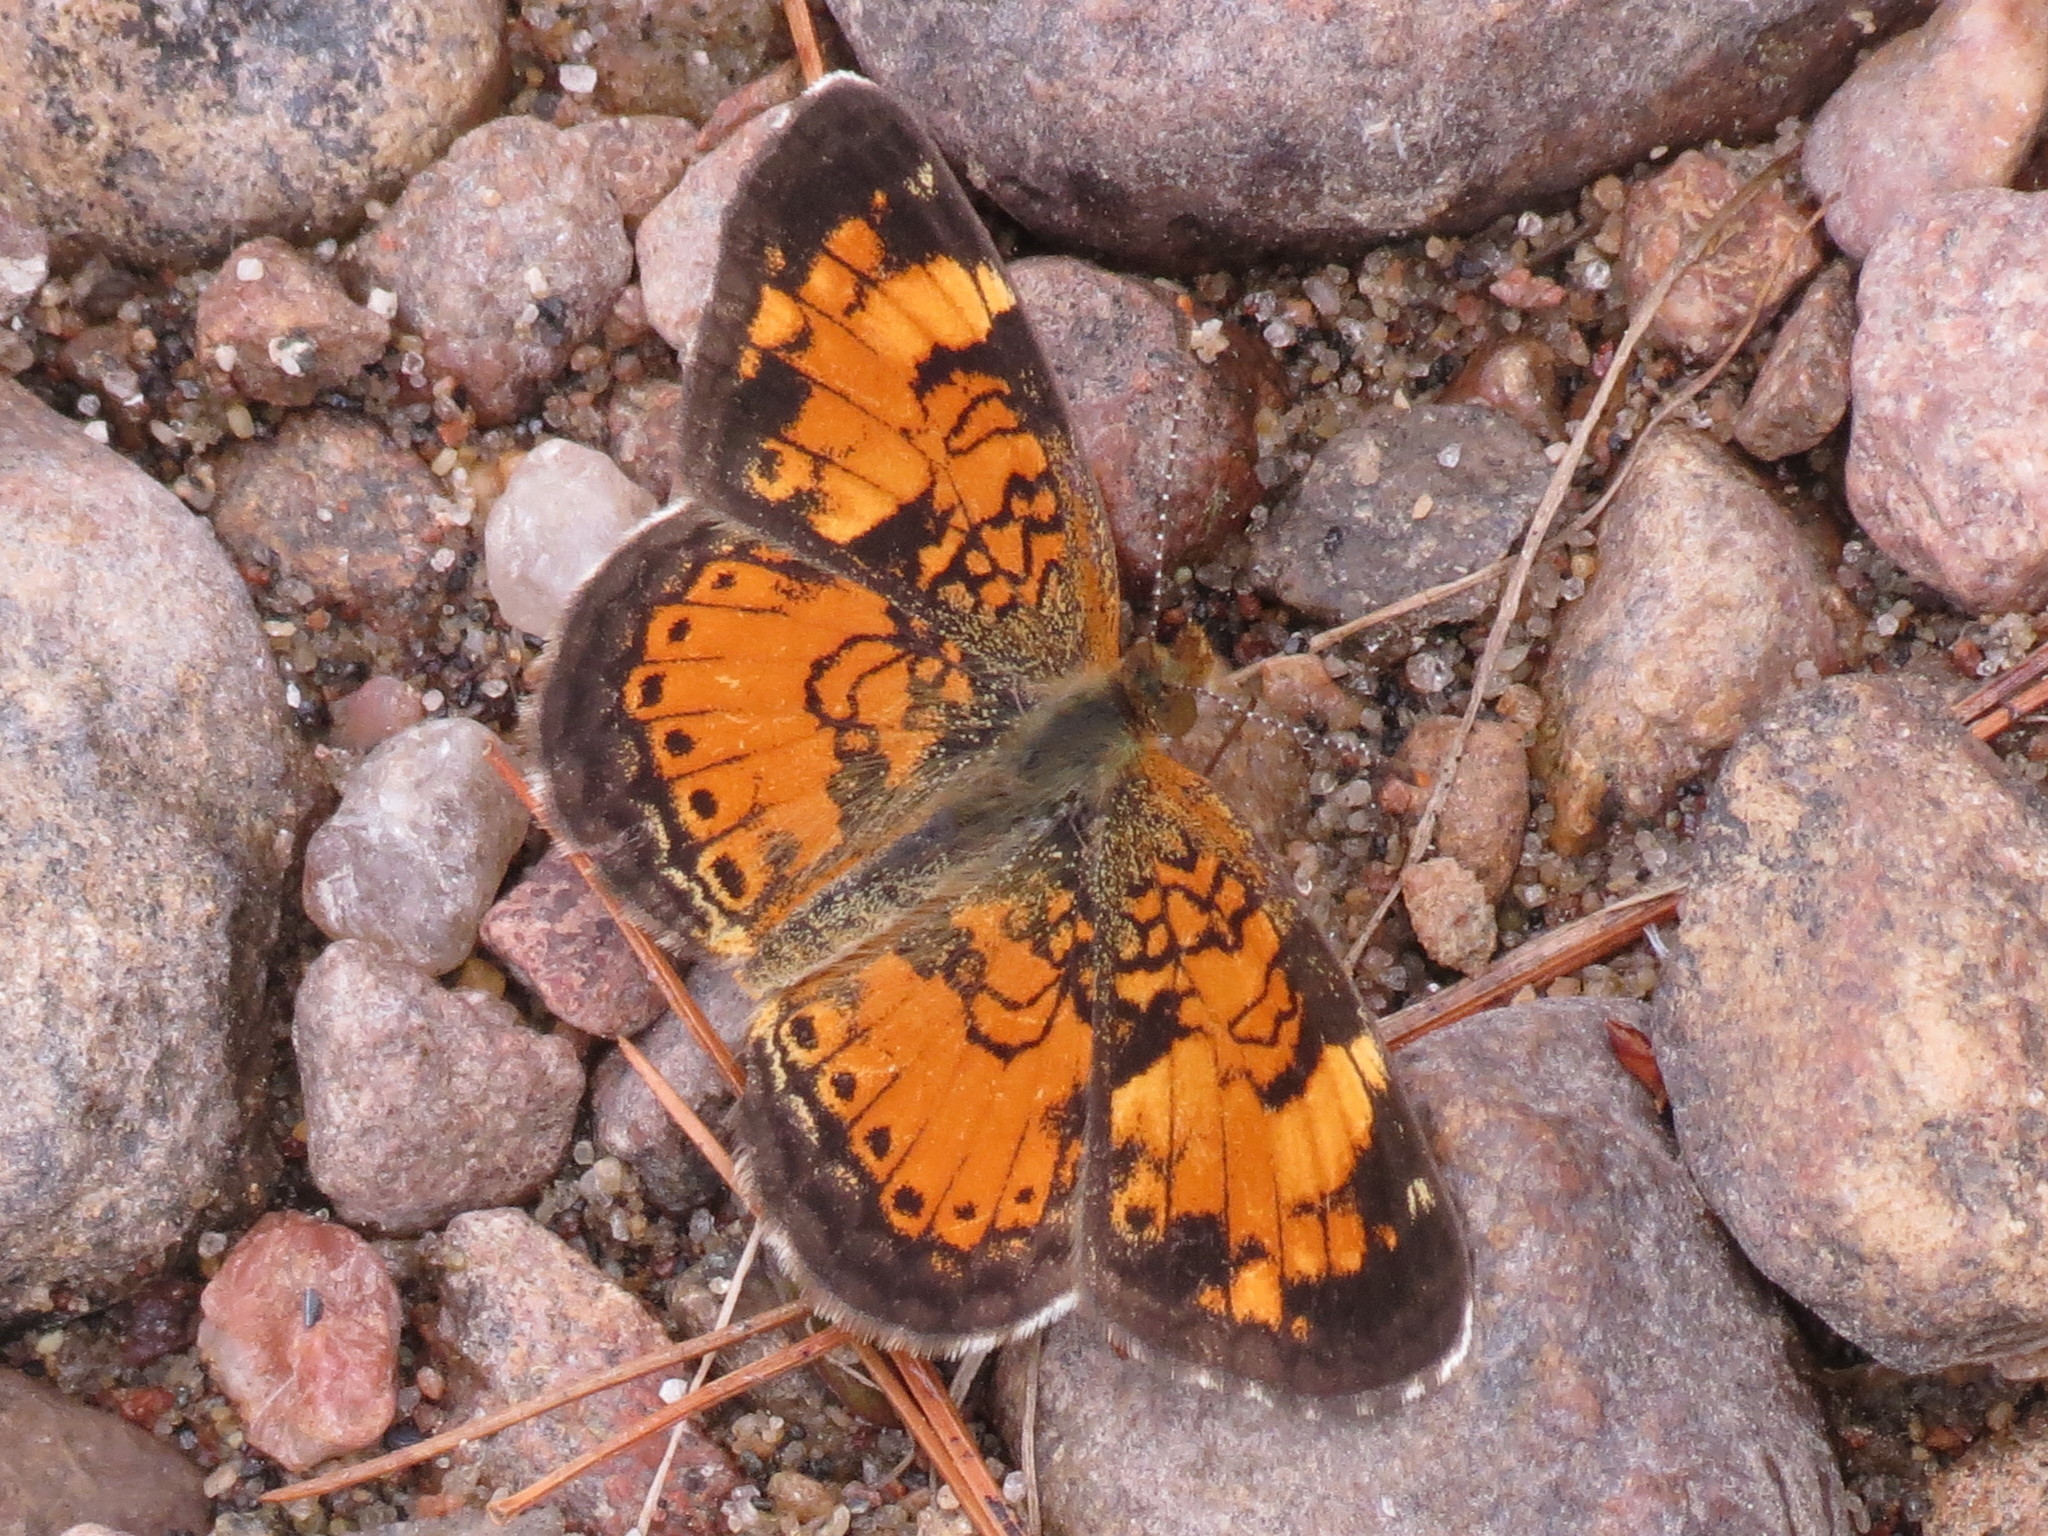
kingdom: Animalia
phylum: Arthropoda
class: Insecta
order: Lepidoptera
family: Nymphalidae
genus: Phyciodes
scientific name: Phyciodes tharos
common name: Pearl crescent
